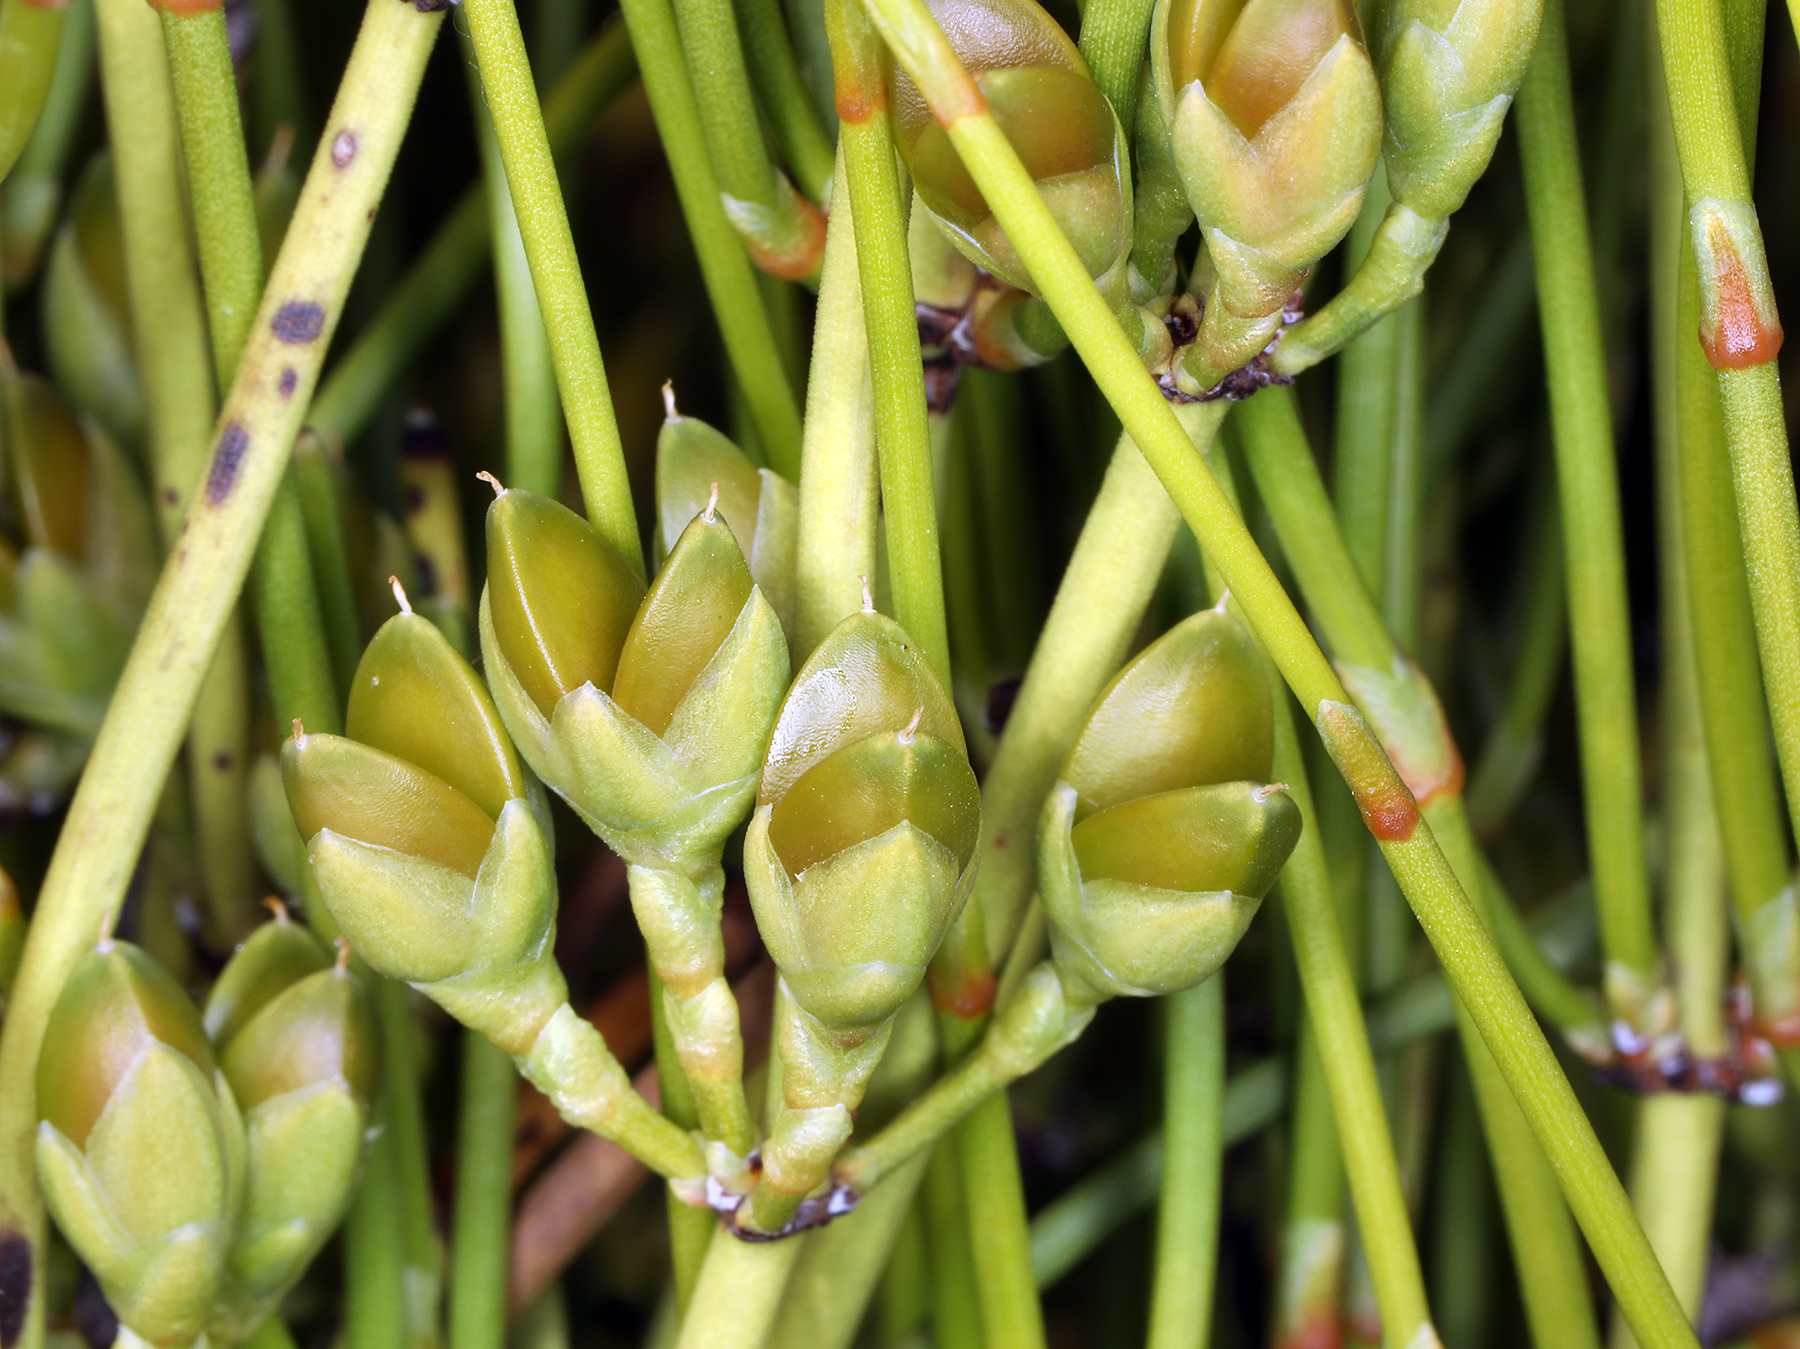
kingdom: Plantae
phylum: Tracheophyta
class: Gnetopsida
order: Ephedrales
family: Ephedraceae
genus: Ephedra
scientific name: Ephedra viridis
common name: Green ephedra
